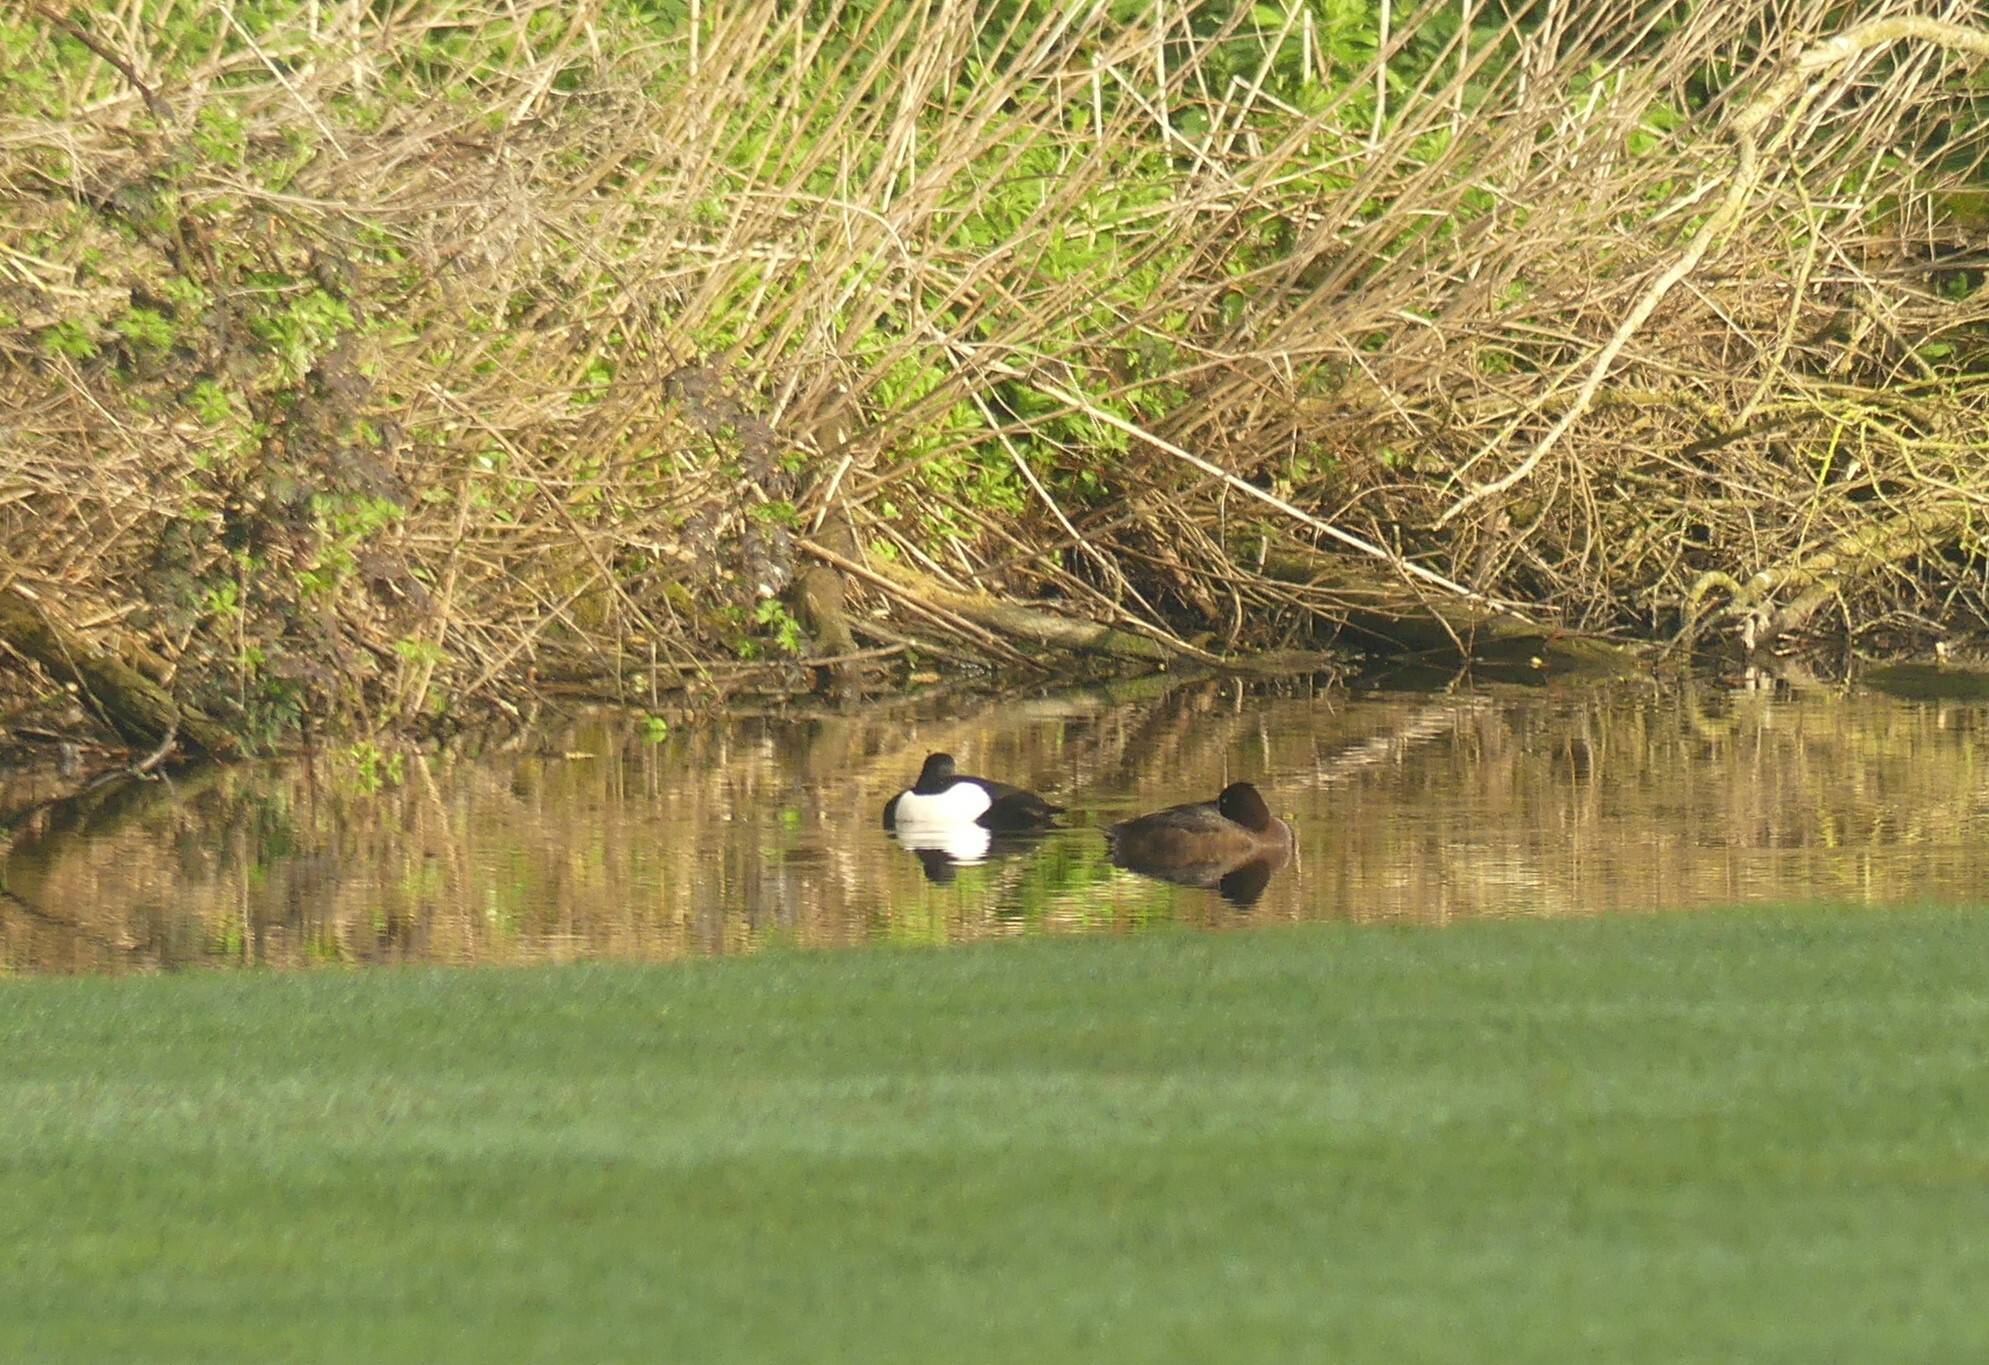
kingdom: Animalia
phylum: Chordata
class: Aves
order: Anseriformes
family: Anatidae
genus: Aythya
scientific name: Aythya fuligula
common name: Tufted duck
